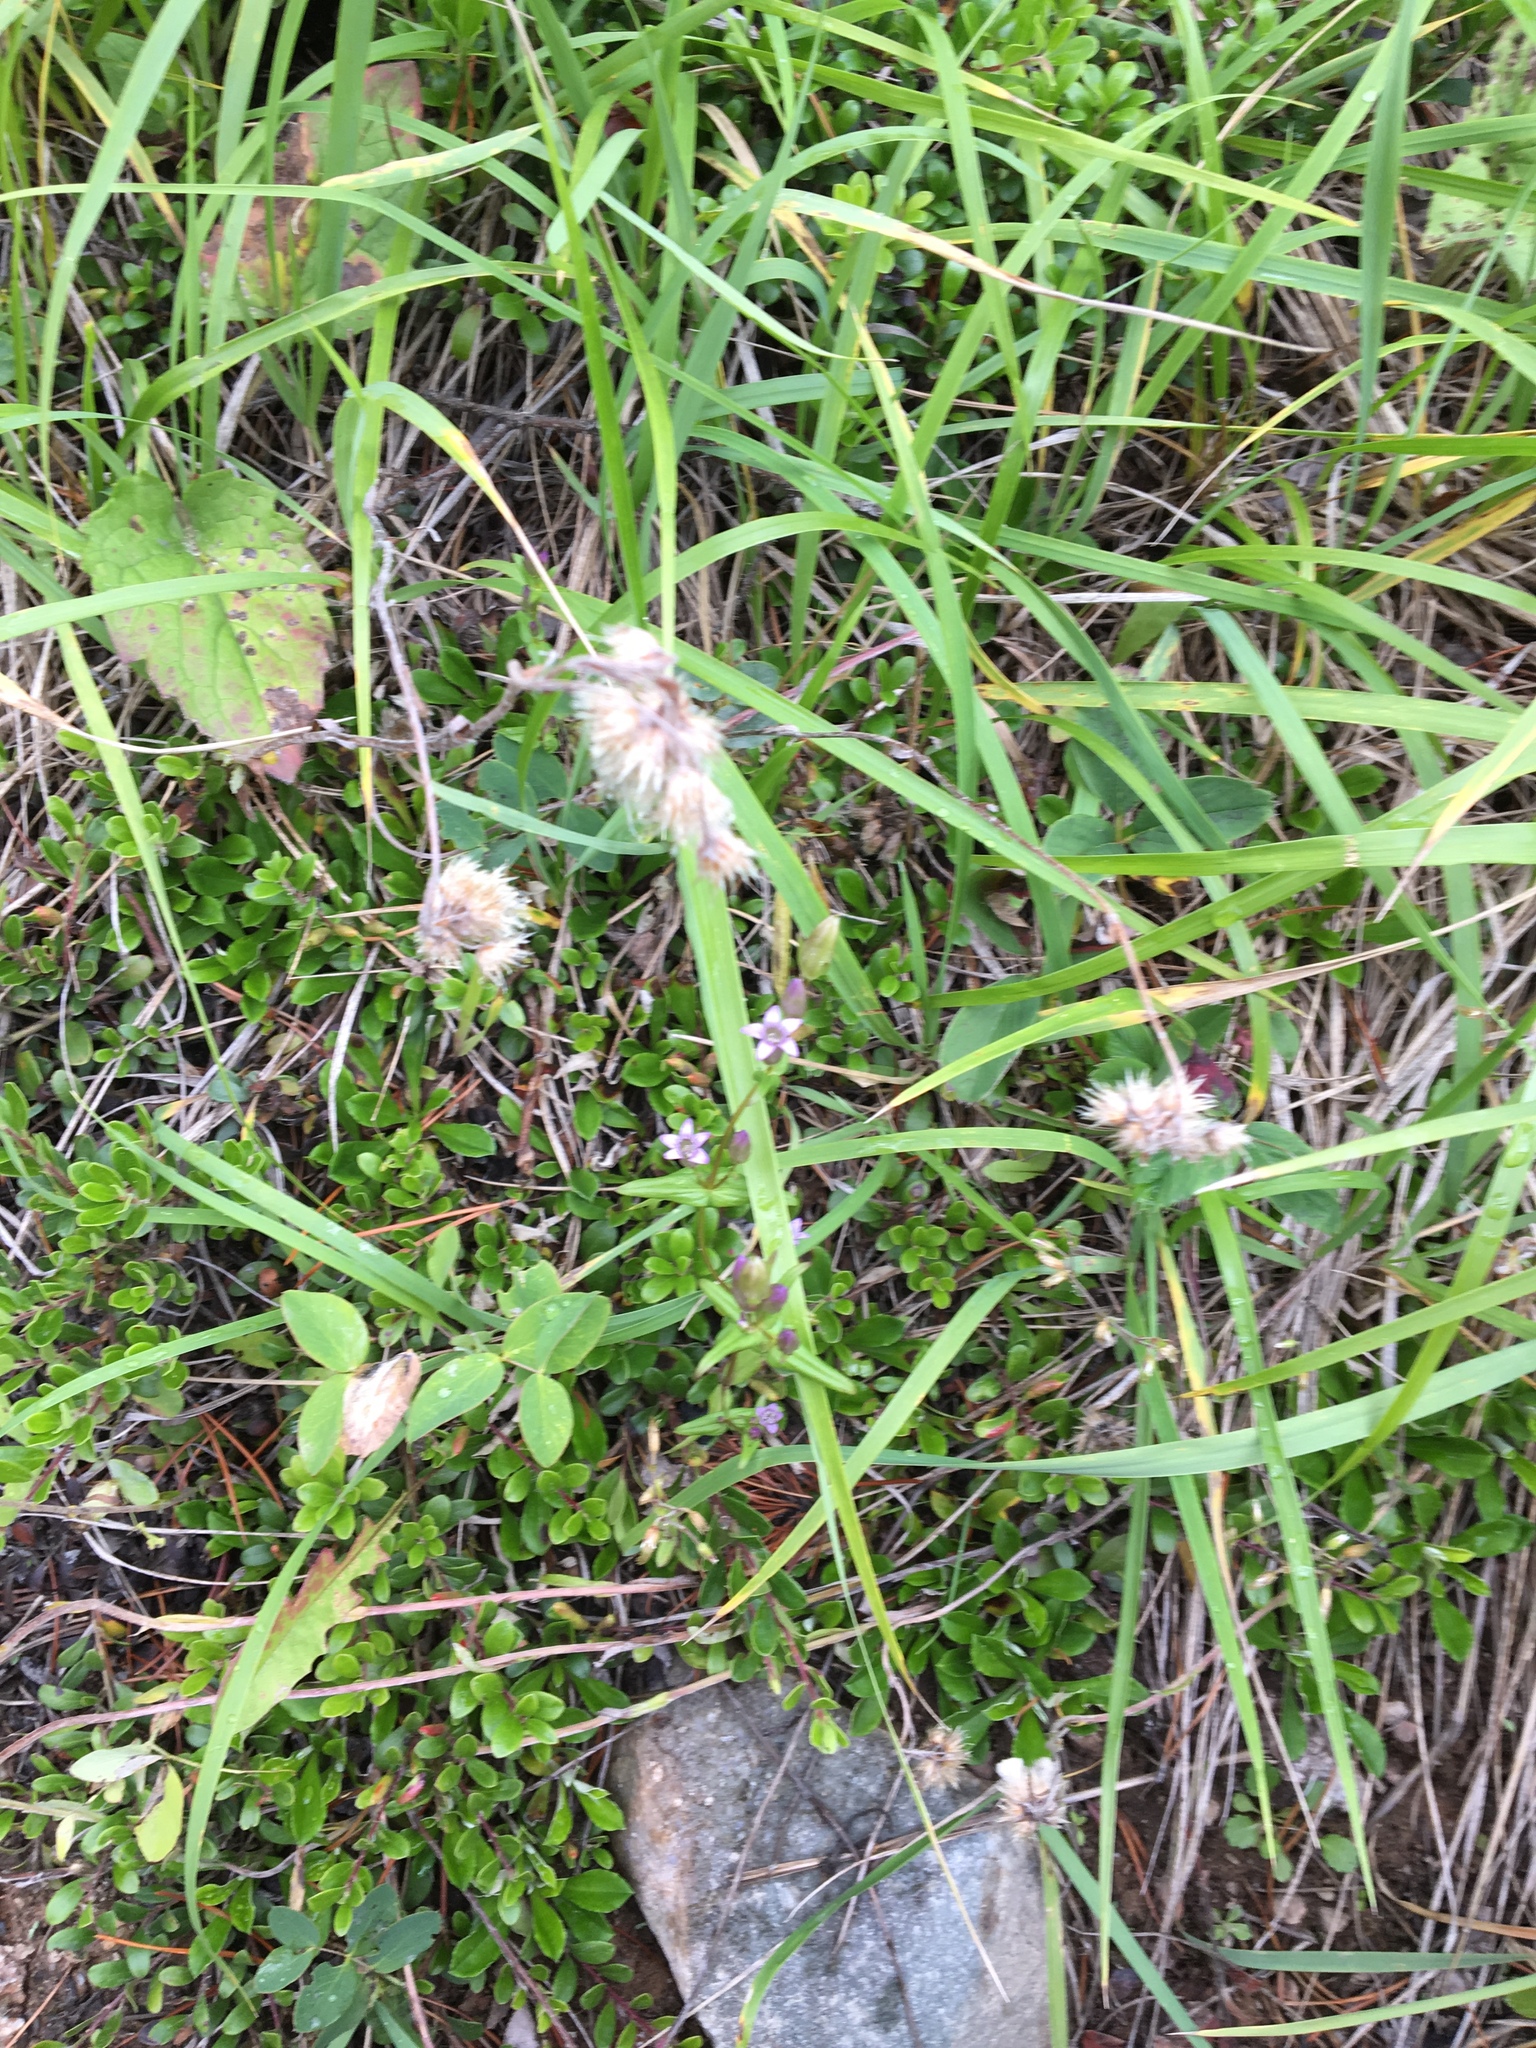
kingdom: Plantae
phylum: Tracheophyta
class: Magnoliopsida
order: Gentianales
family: Gentianaceae
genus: Gentianella
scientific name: Gentianella amarella
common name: Autumn gentian
